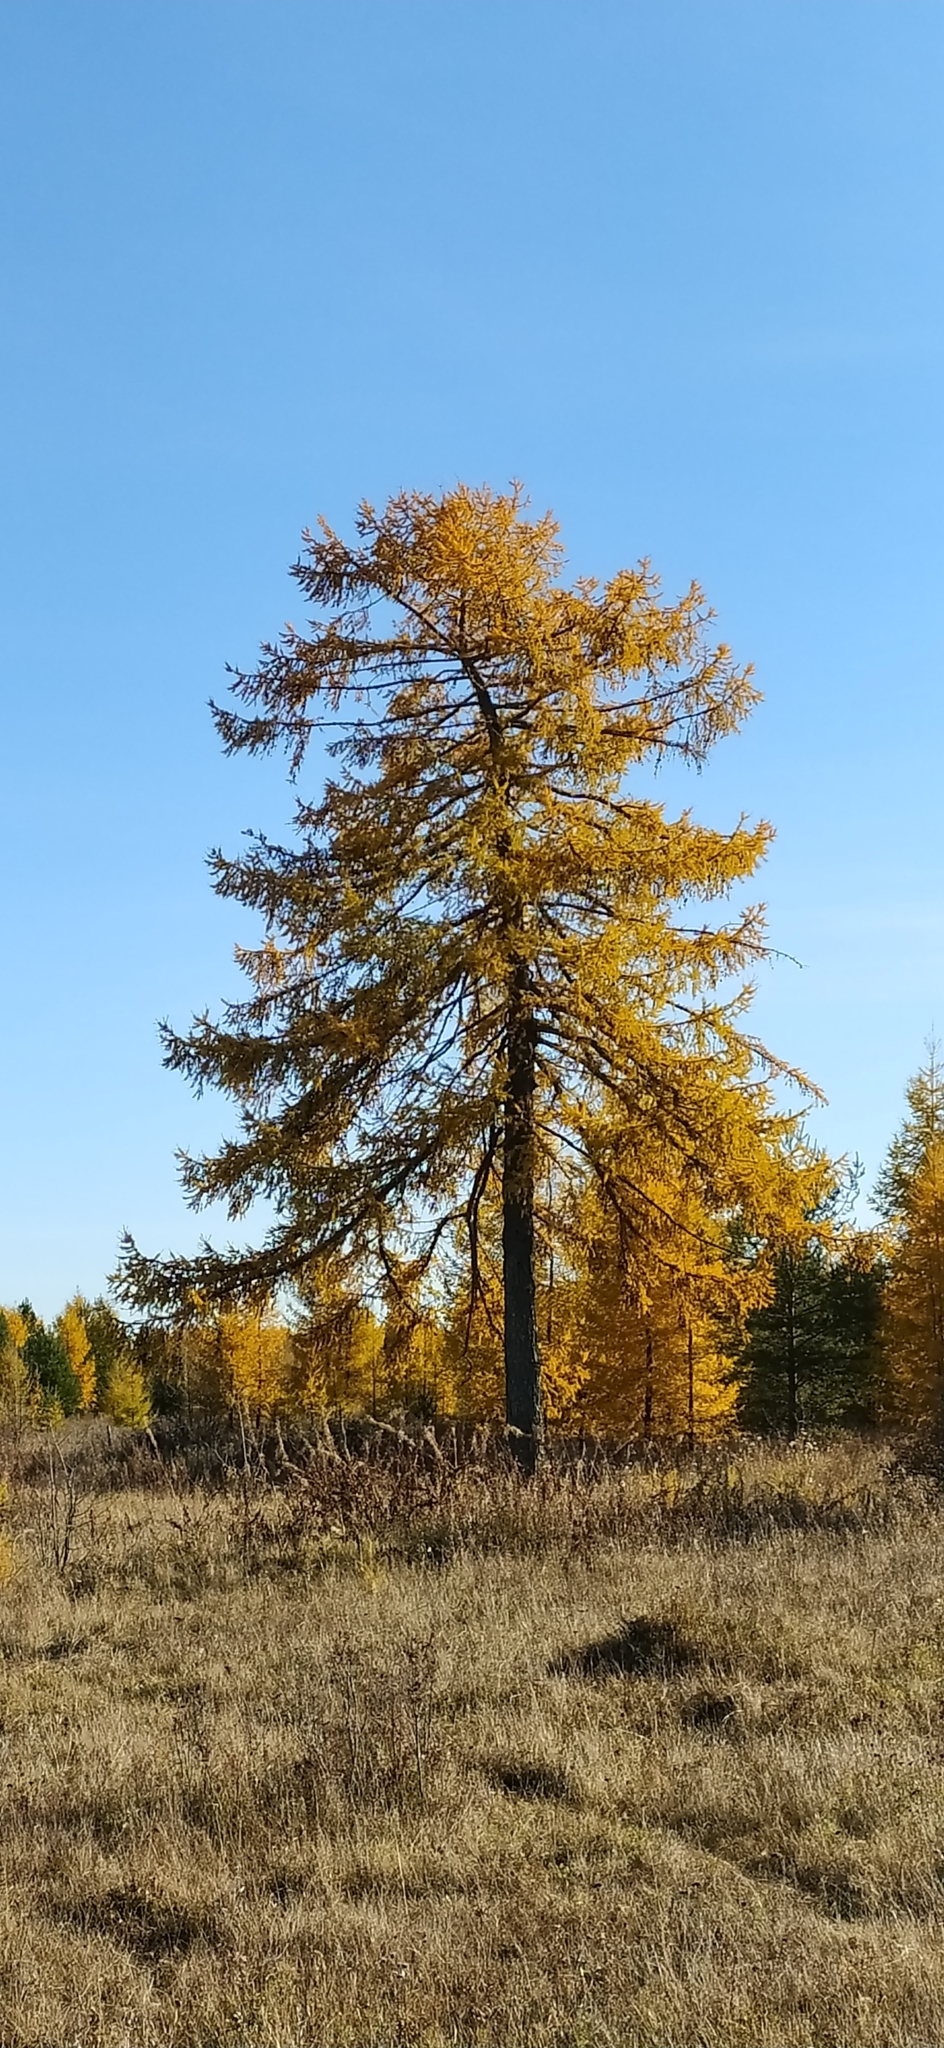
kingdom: Plantae
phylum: Tracheophyta
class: Pinopsida
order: Pinales
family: Pinaceae
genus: Larix
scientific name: Larix sibirica
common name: Siberian larch
